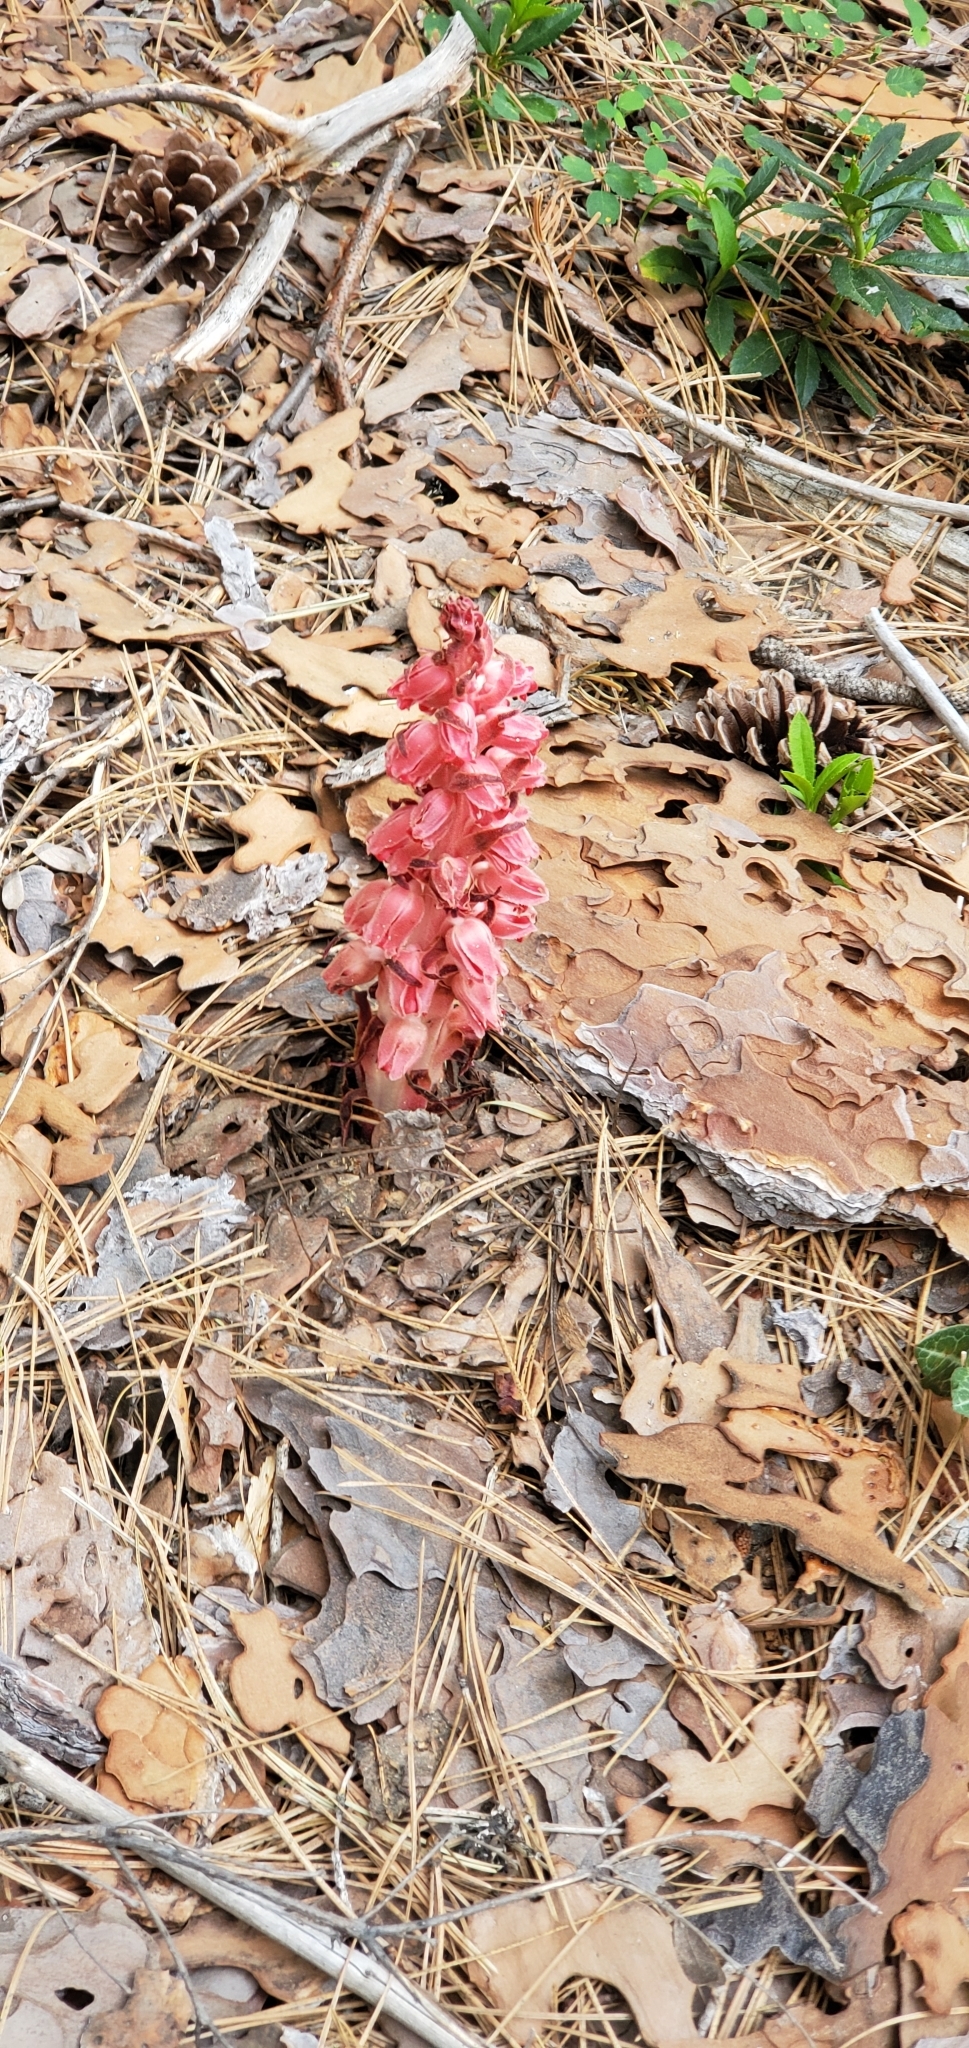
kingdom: Plantae
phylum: Tracheophyta
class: Magnoliopsida
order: Ericales
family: Ericaceae
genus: Sarcodes
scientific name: Sarcodes sanguinea
